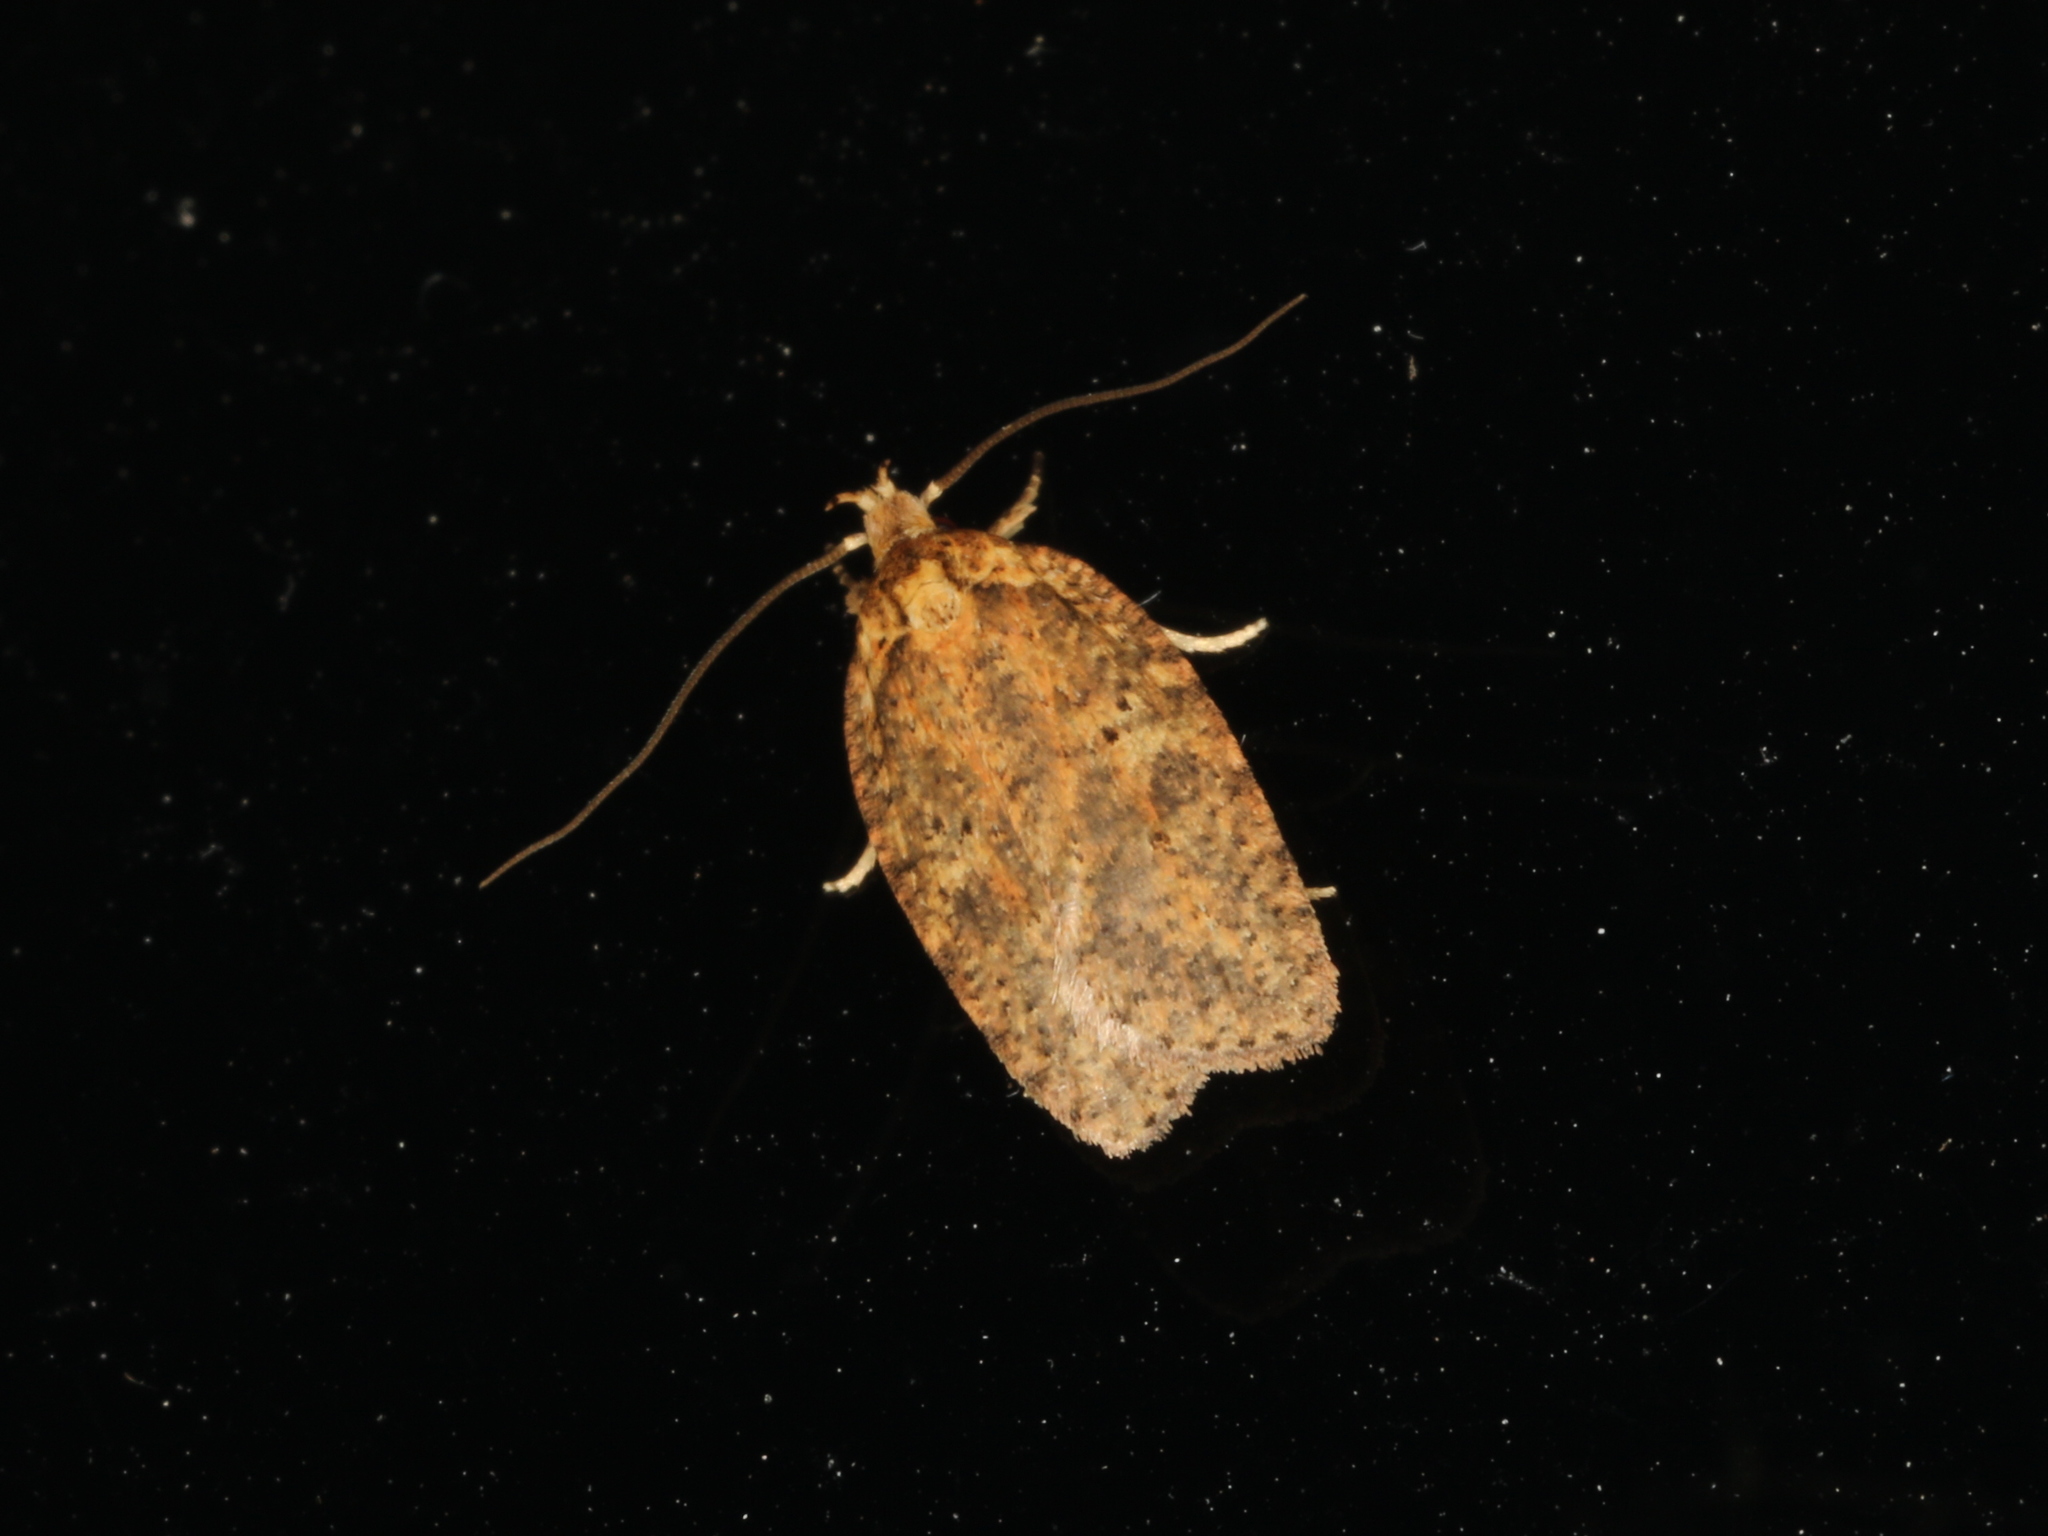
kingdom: Animalia
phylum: Arthropoda
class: Insecta
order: Lepidoptera
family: Depressariidae
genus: Agonopterix
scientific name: Agonopterix thelmae
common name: Thelma's agonopterix moth
